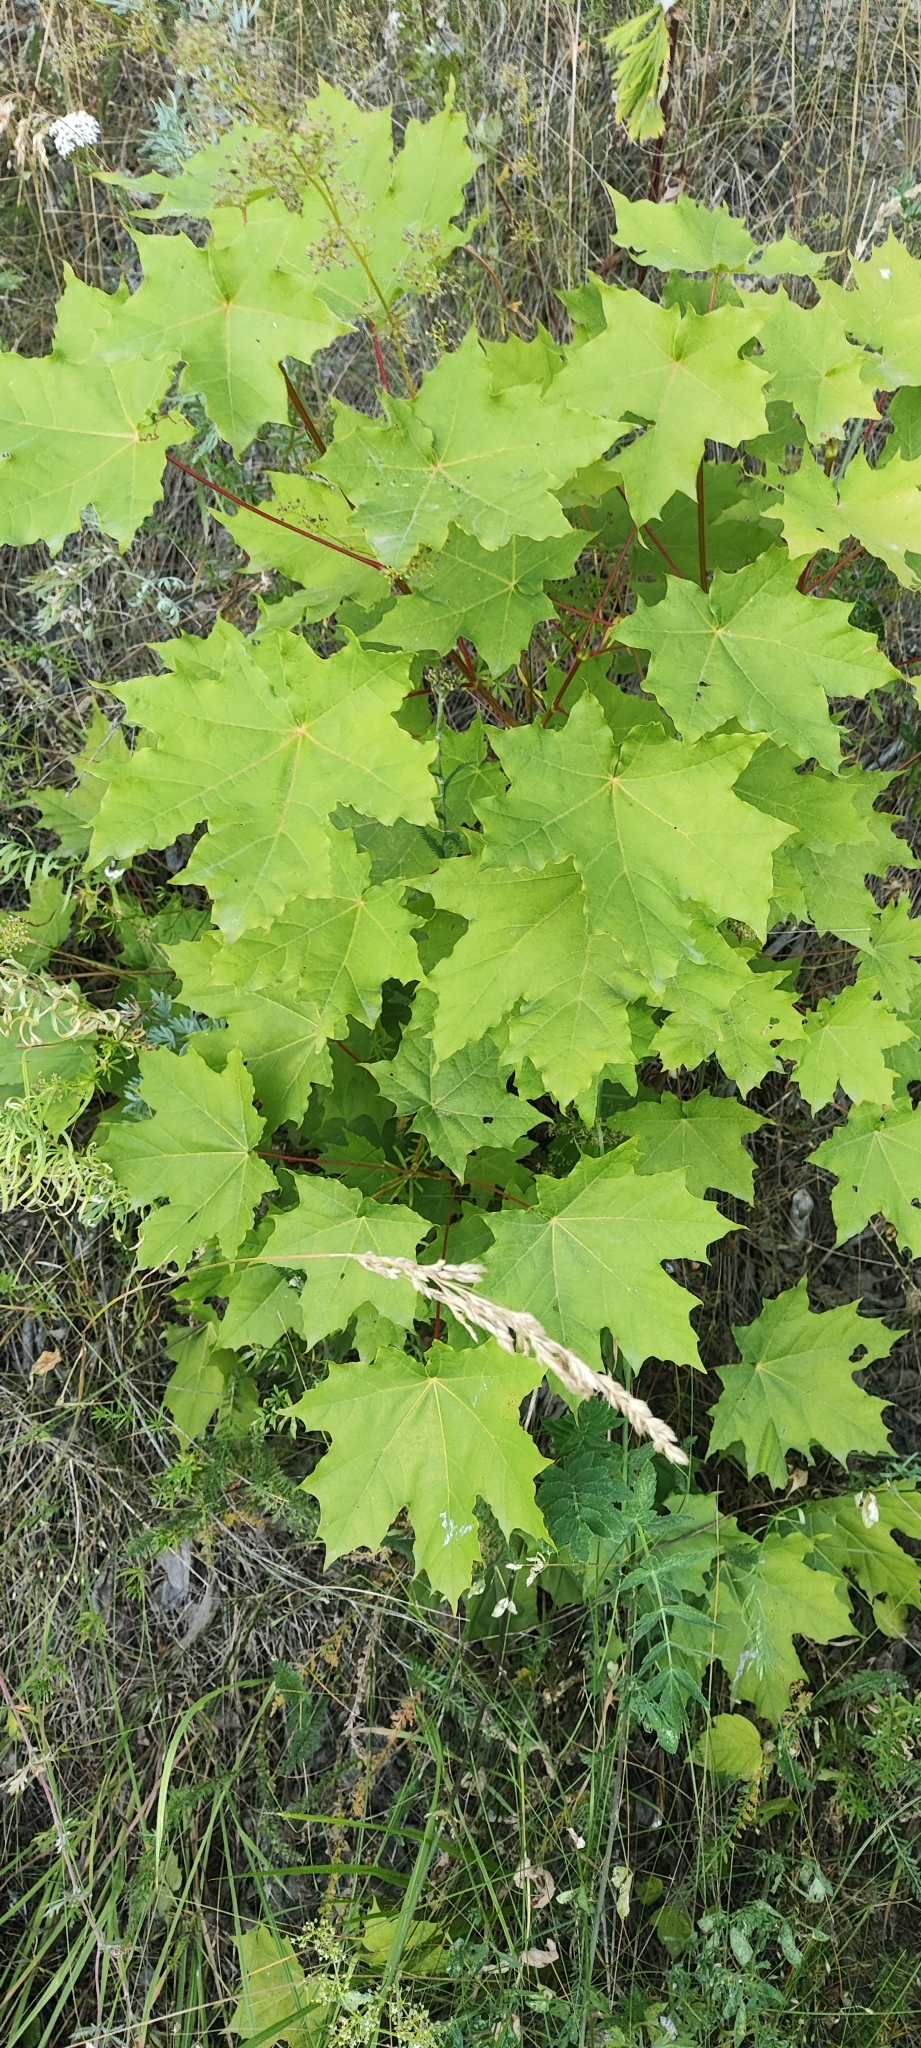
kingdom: Plantae
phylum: Tracheophyta
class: Magnoliopsida
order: Sapindales
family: Sapindaceae
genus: Acer
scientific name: Acer platanoides
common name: Norway maple
